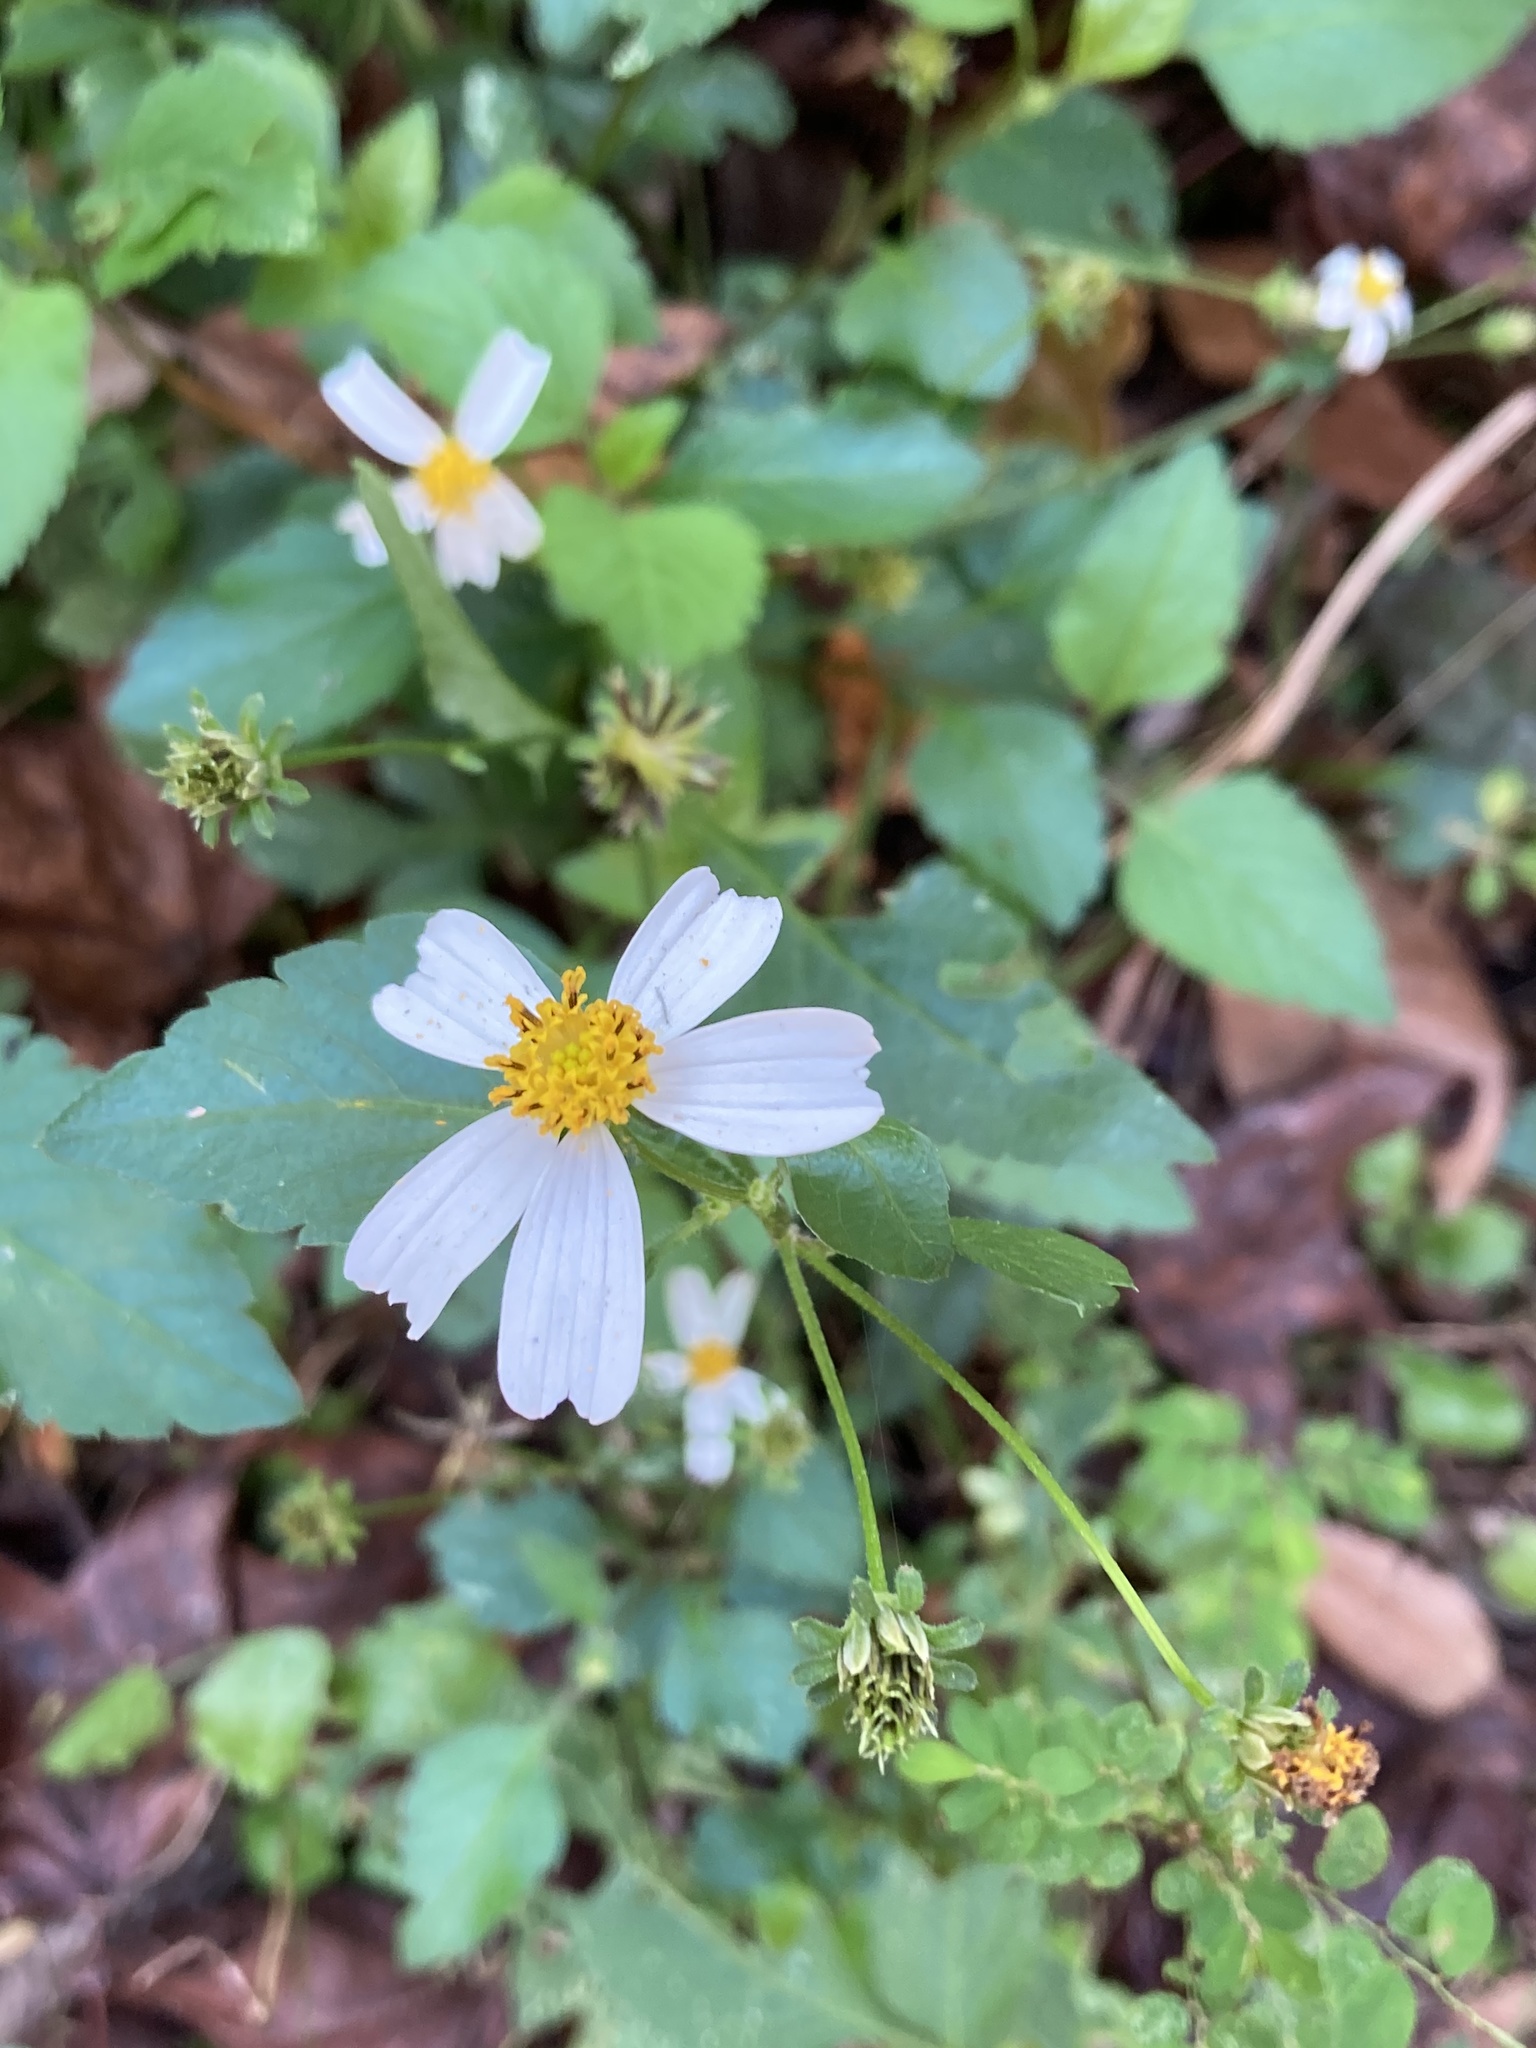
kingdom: Plantae
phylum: Tracheophyta
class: Magnoliopsida
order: Asterales
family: Asteraceae
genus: Bidens
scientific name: Bidens alba
